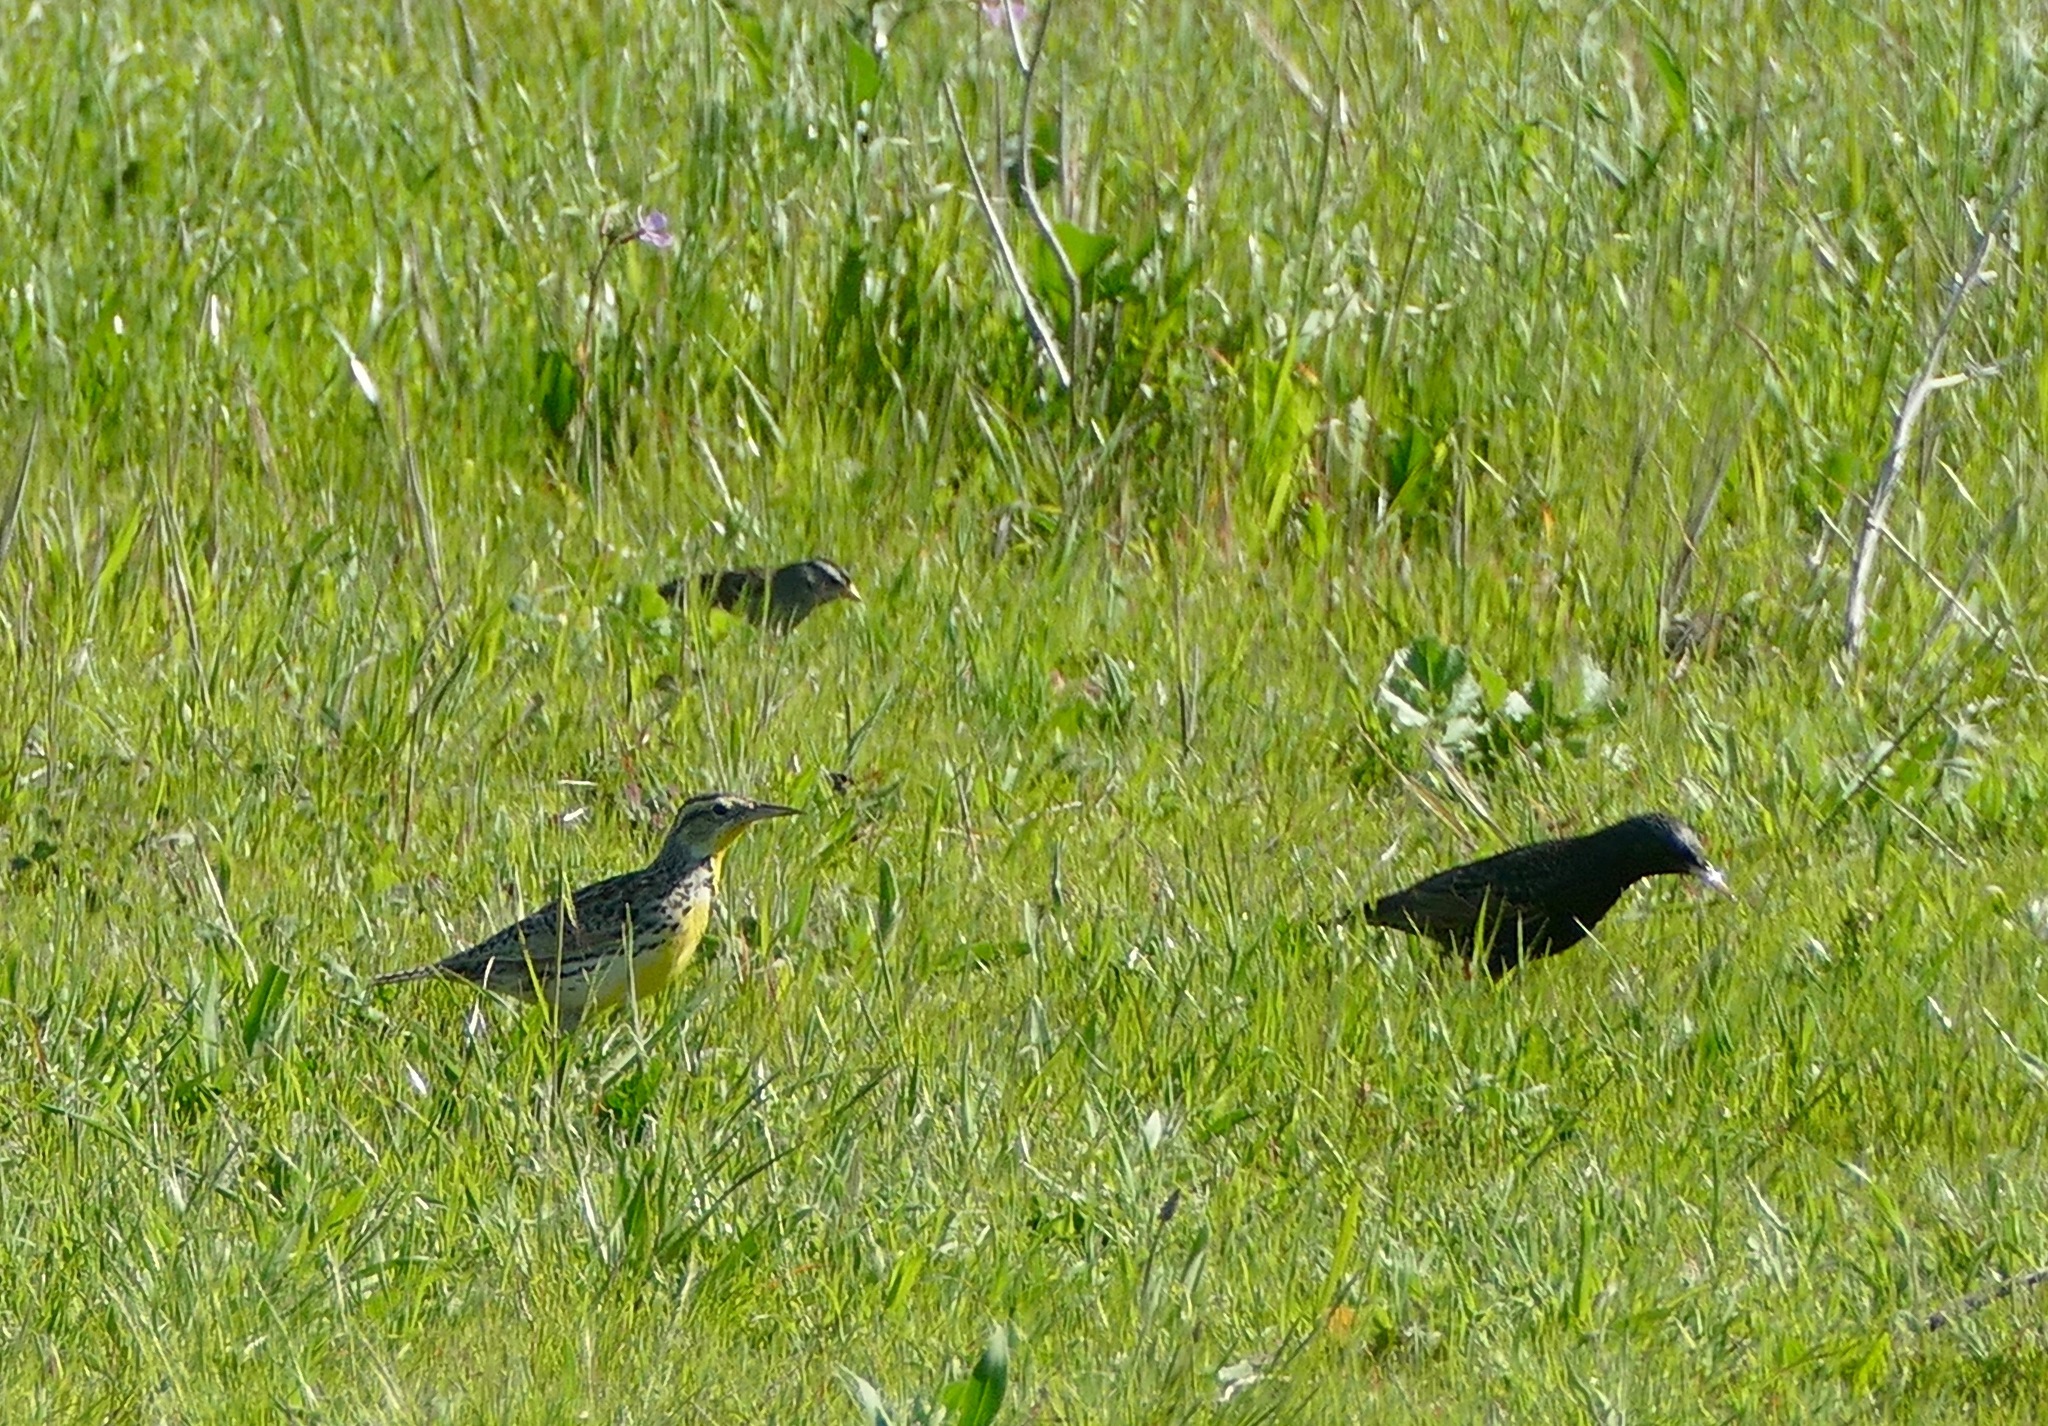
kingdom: Animalia
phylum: Chordata
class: Aves
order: Passeriformes
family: Icteridae
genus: Sturnella
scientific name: Sturnella neglecta
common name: Western meadowlark
